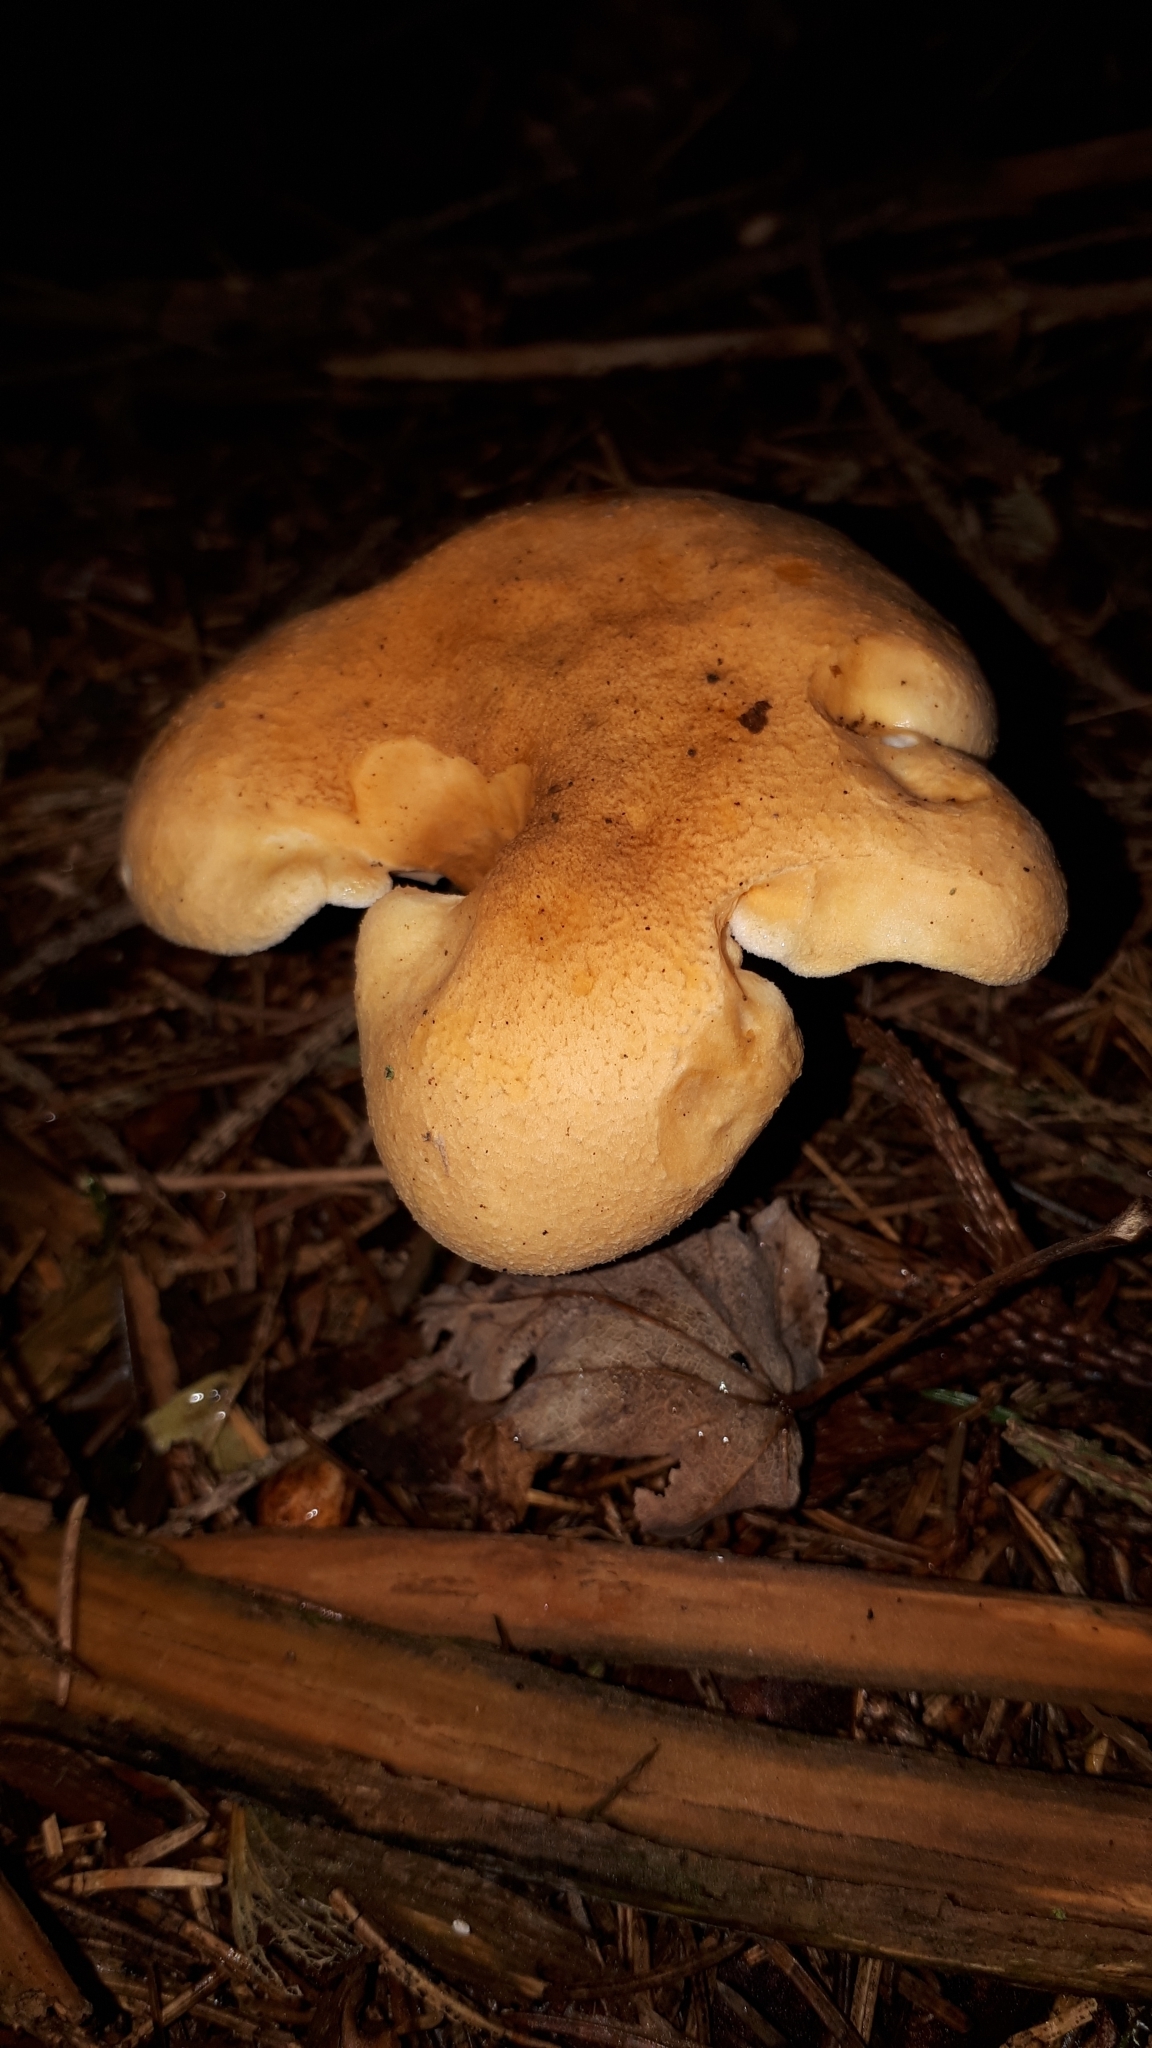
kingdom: Fungi
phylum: Basidiomycota
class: Agaricomycetes
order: Boletales
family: Hygrophoropsidaceae
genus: Hygrophoropsis
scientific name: Hygrophoropsis aurantiaca
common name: False chanterelle
